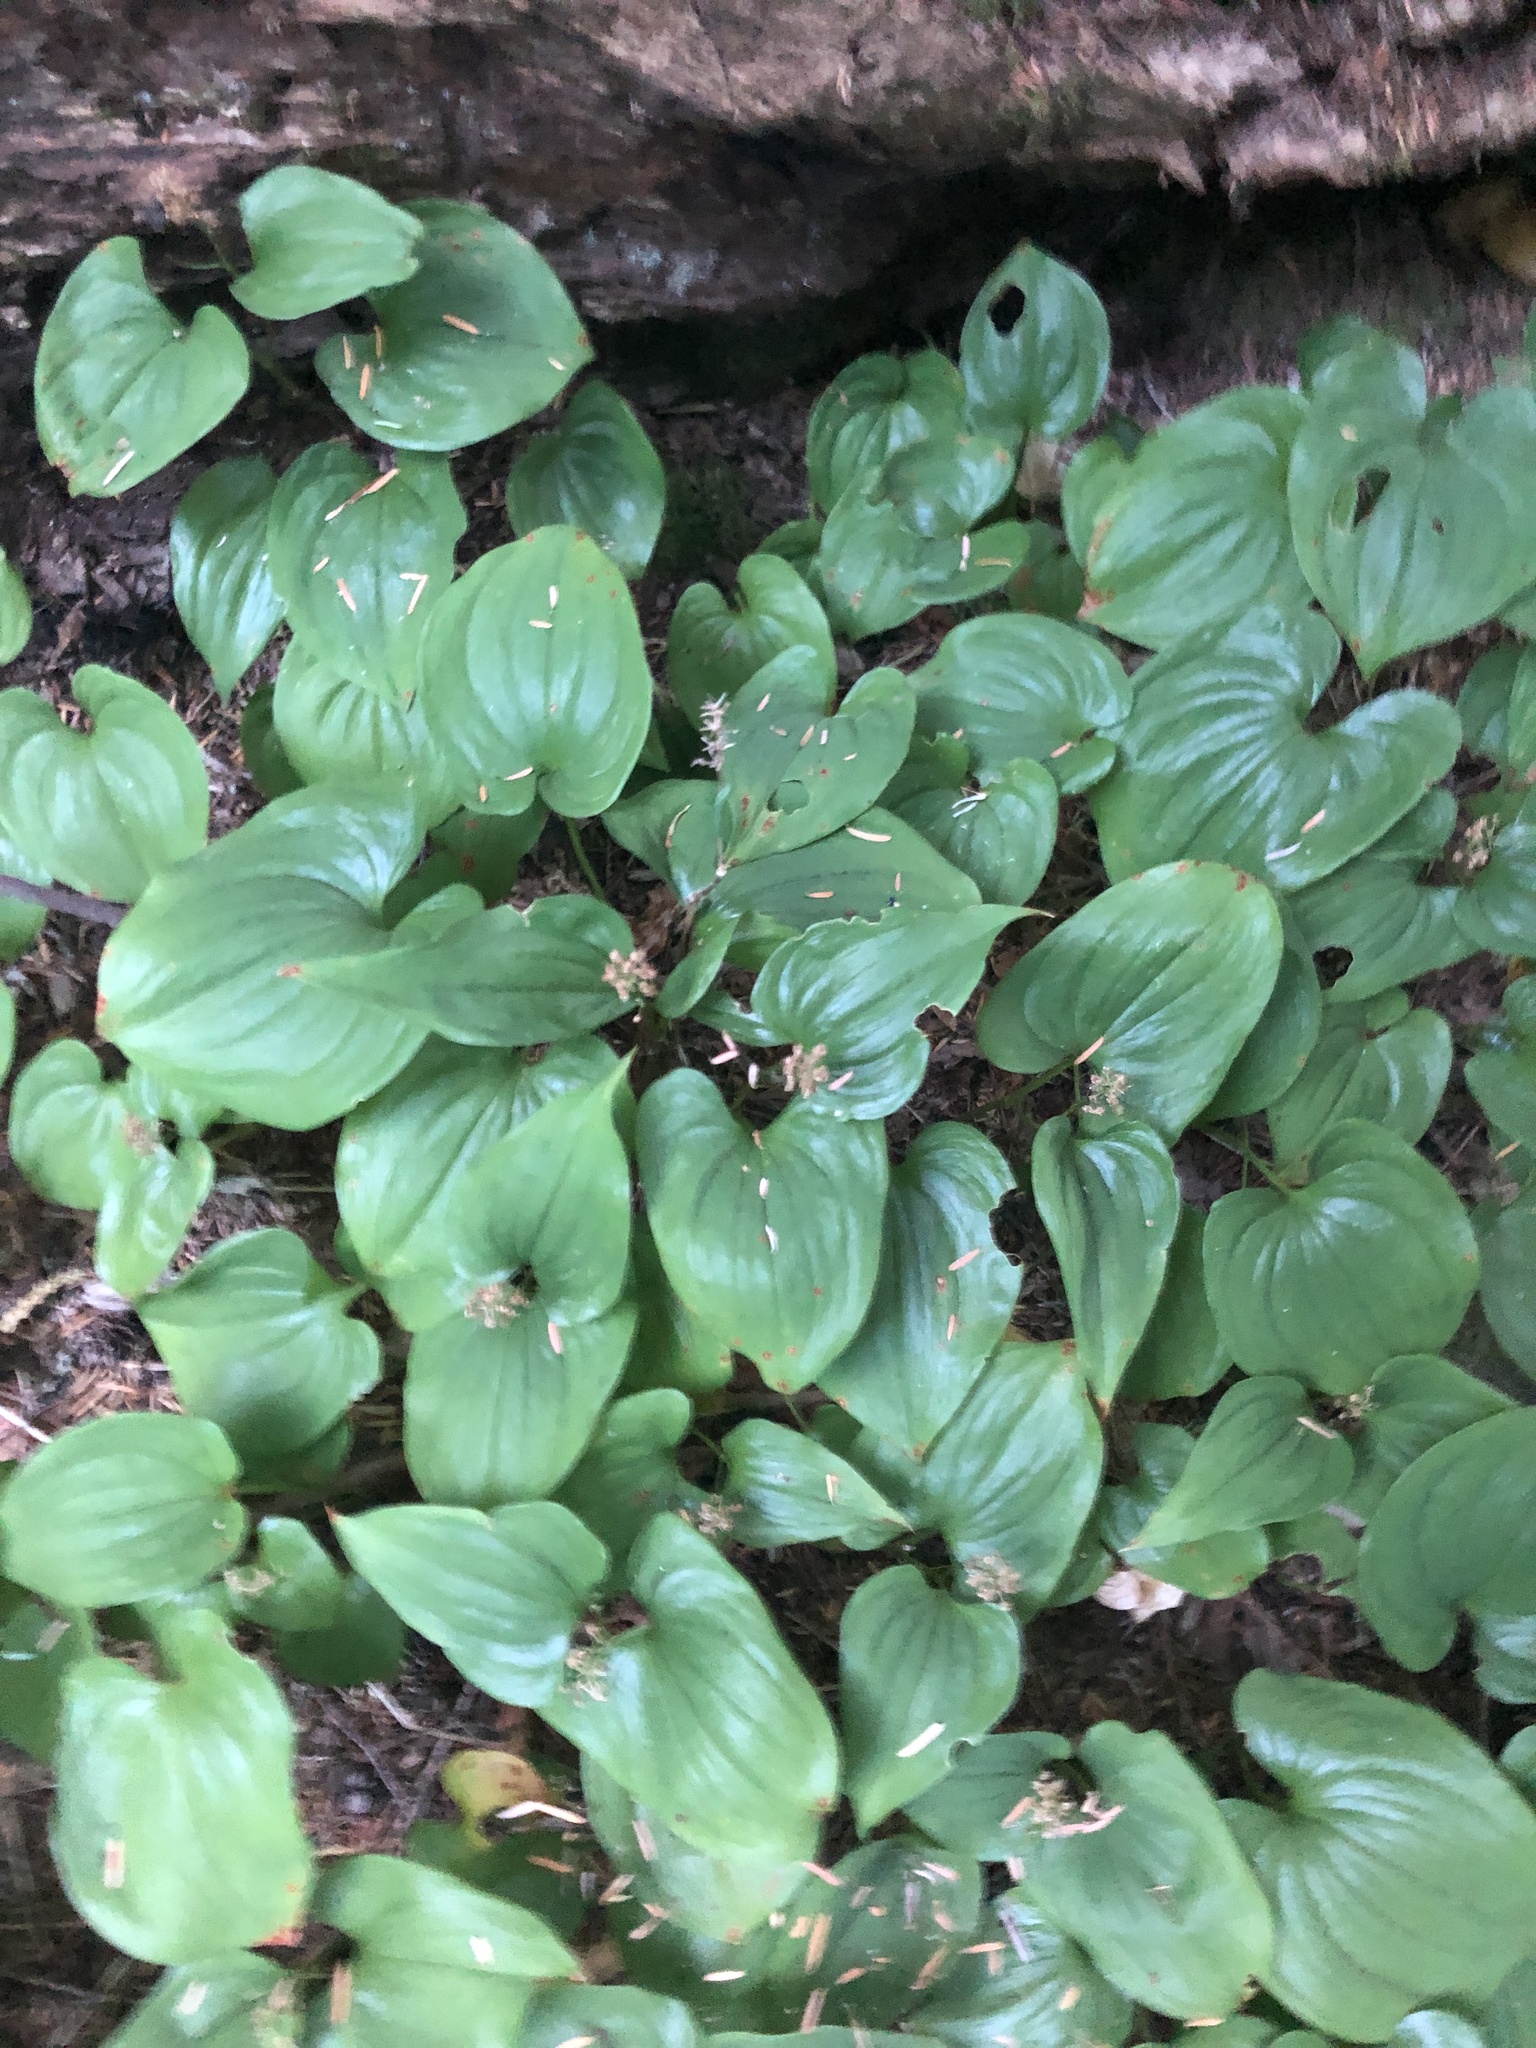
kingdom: Plantae
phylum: Tracheophyta
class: Liliopsida
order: Asparagales
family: Asparagaceae
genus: Maianthemum
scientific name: Maianthemum dilatatum
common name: False lily-of-the-valley
